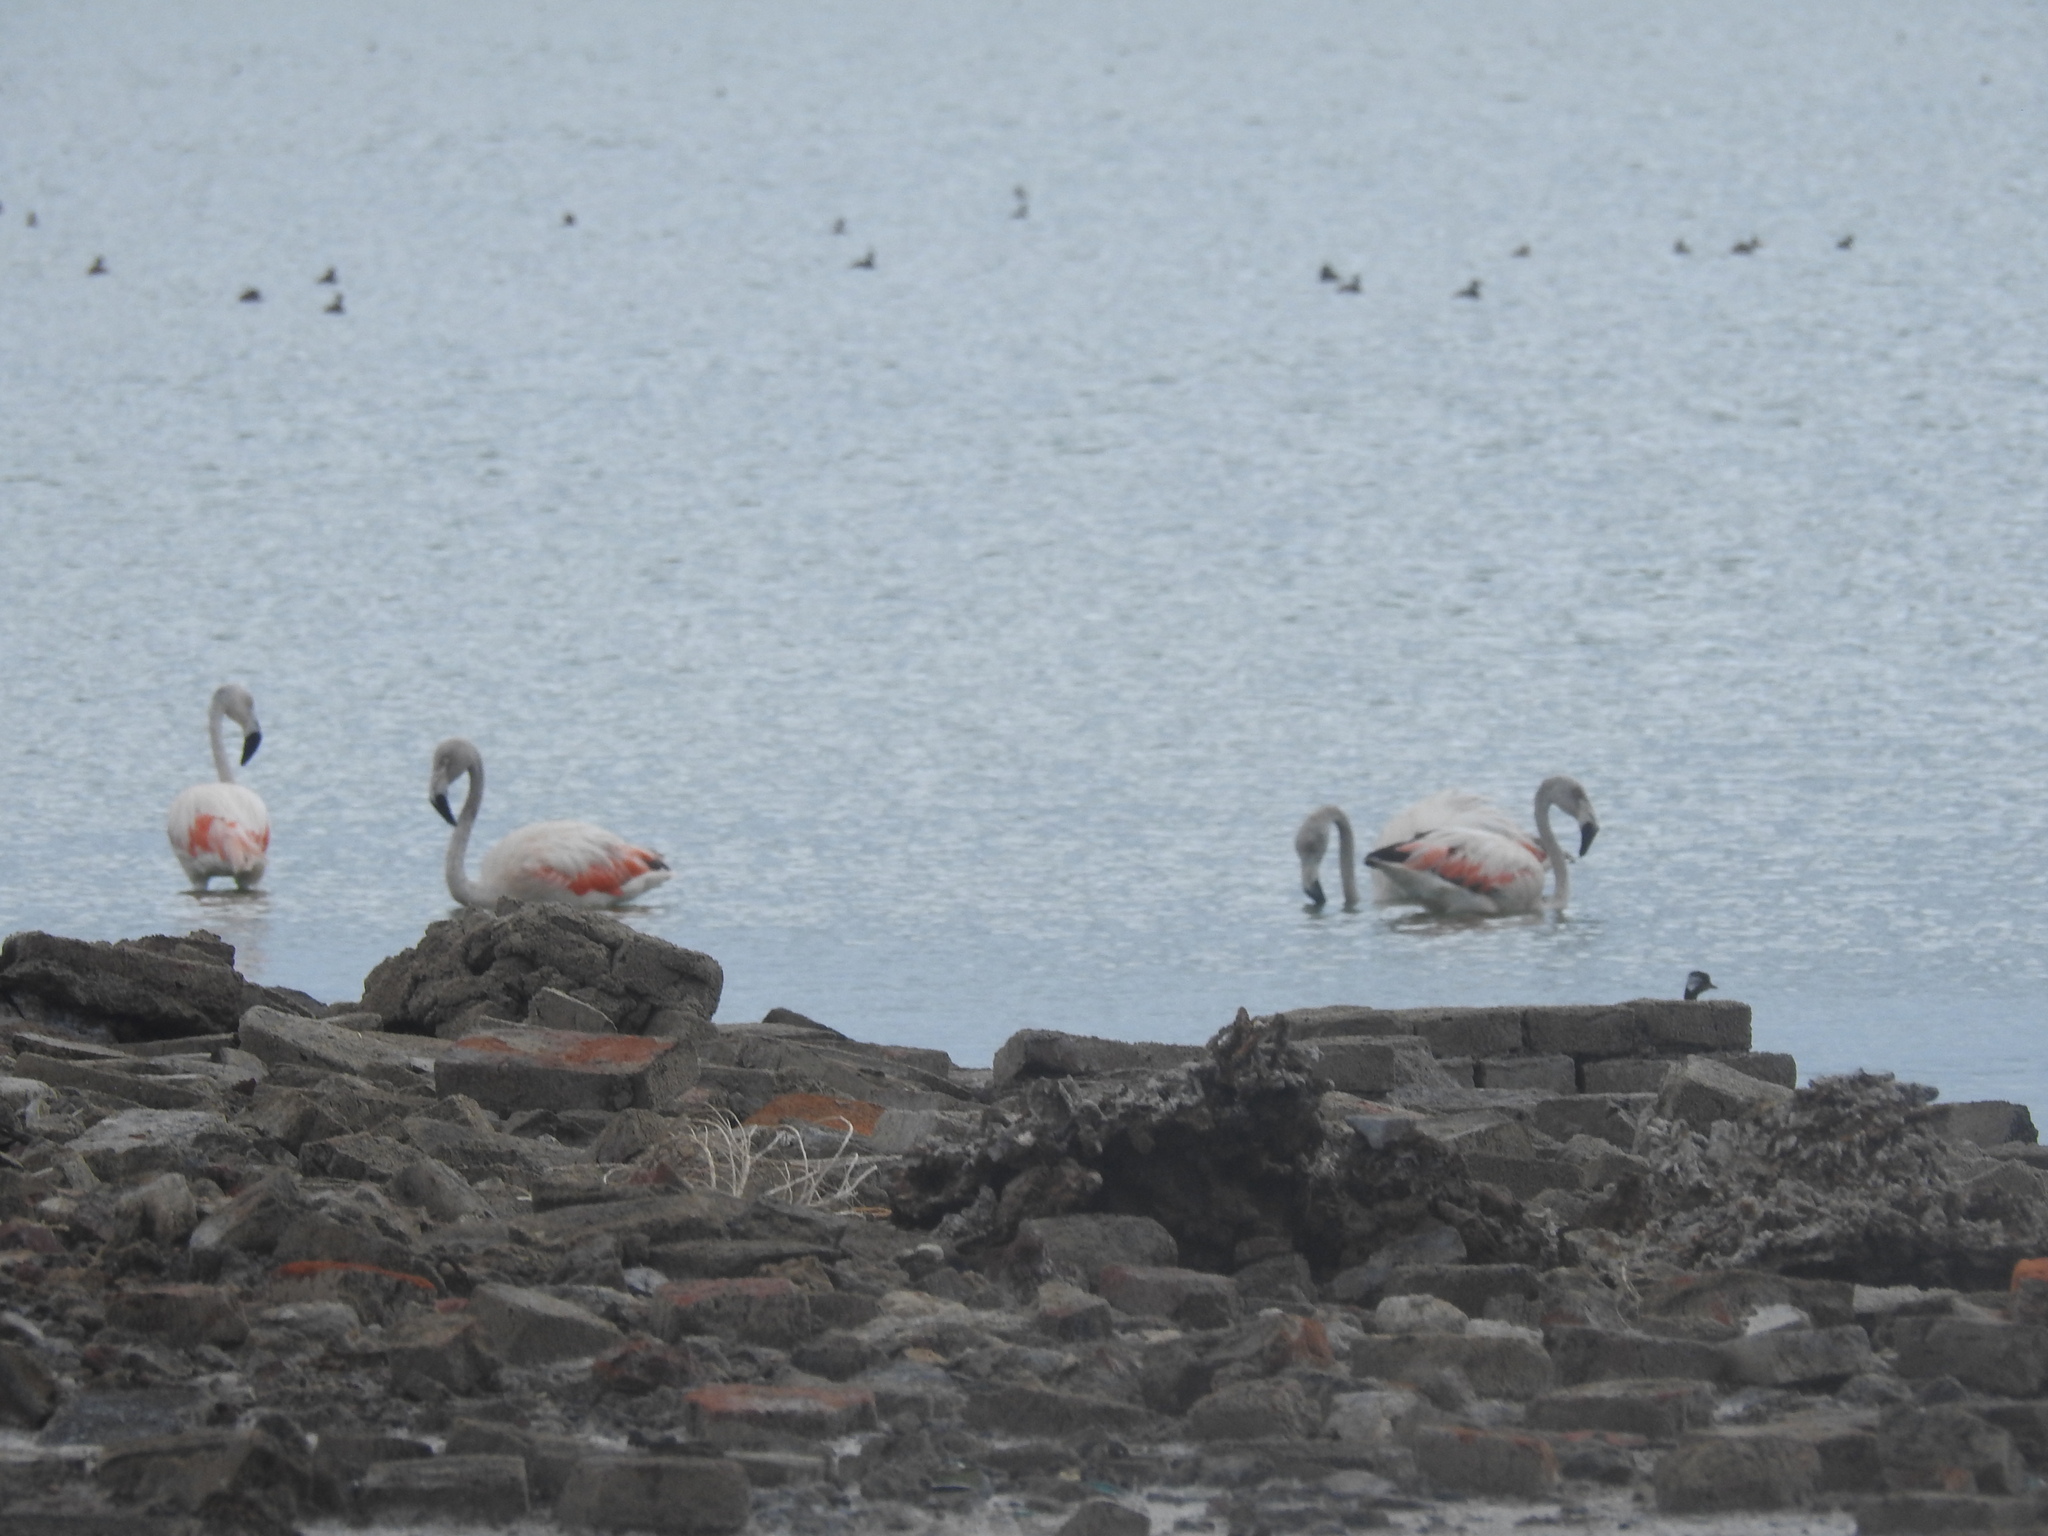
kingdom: Animalia
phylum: Chordata
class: Aves
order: Phoenicopteriformes
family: Phoenicopteridae
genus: Phoenicopterus
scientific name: Phoenicopterus chilensis
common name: Chilean flamingo
